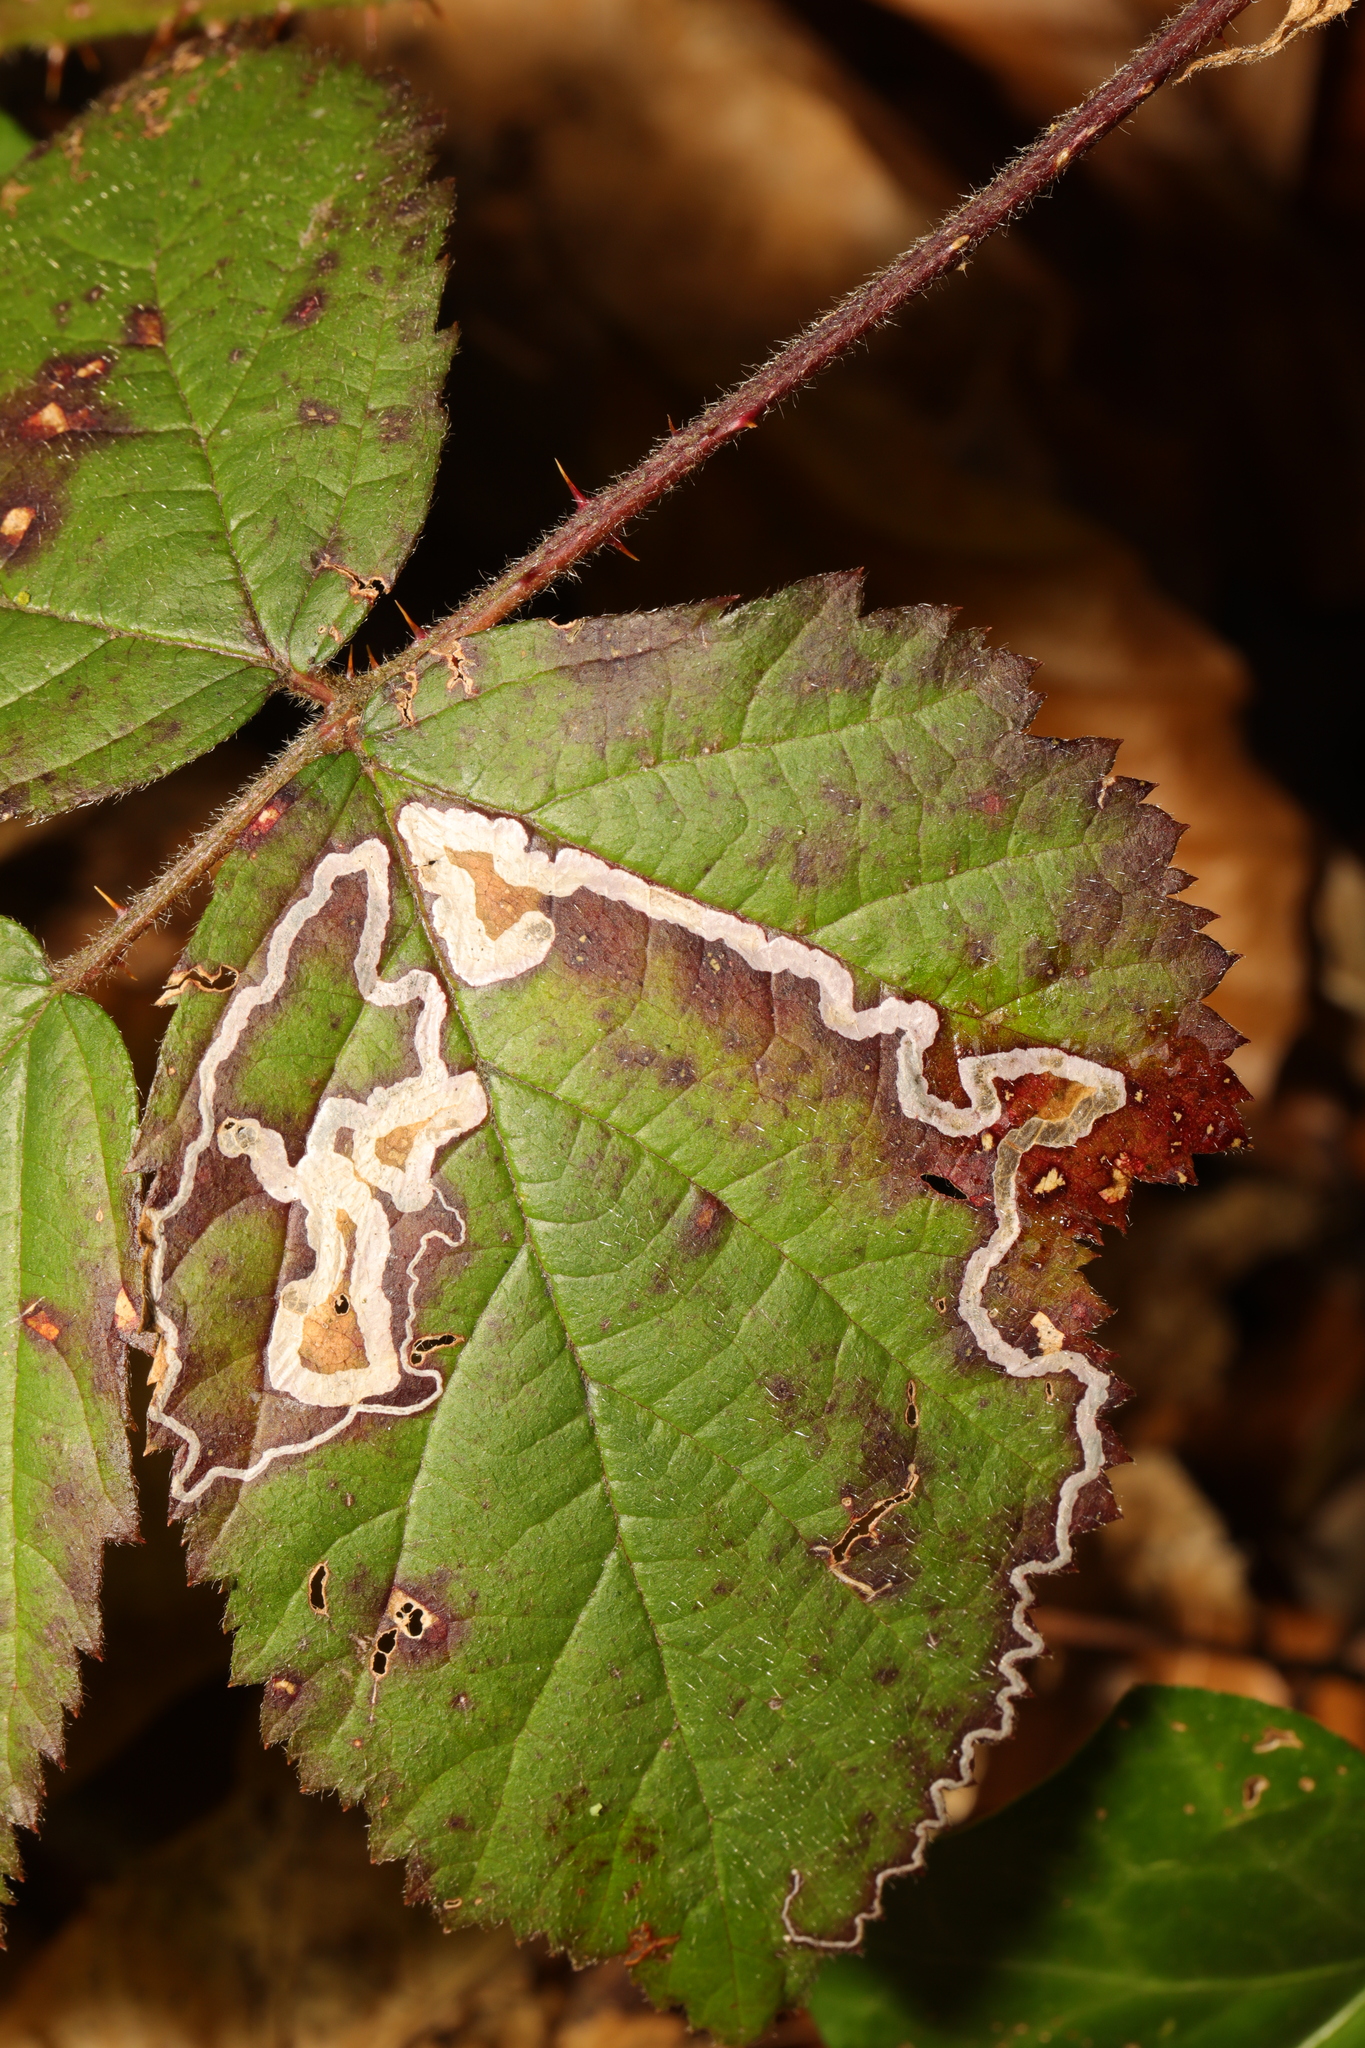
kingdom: Animalia
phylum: Arthropoda
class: Insecta
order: Lepidoptera
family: Nepticulidae
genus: Stigmella
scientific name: Stigmella aurella
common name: Golden pigmy
